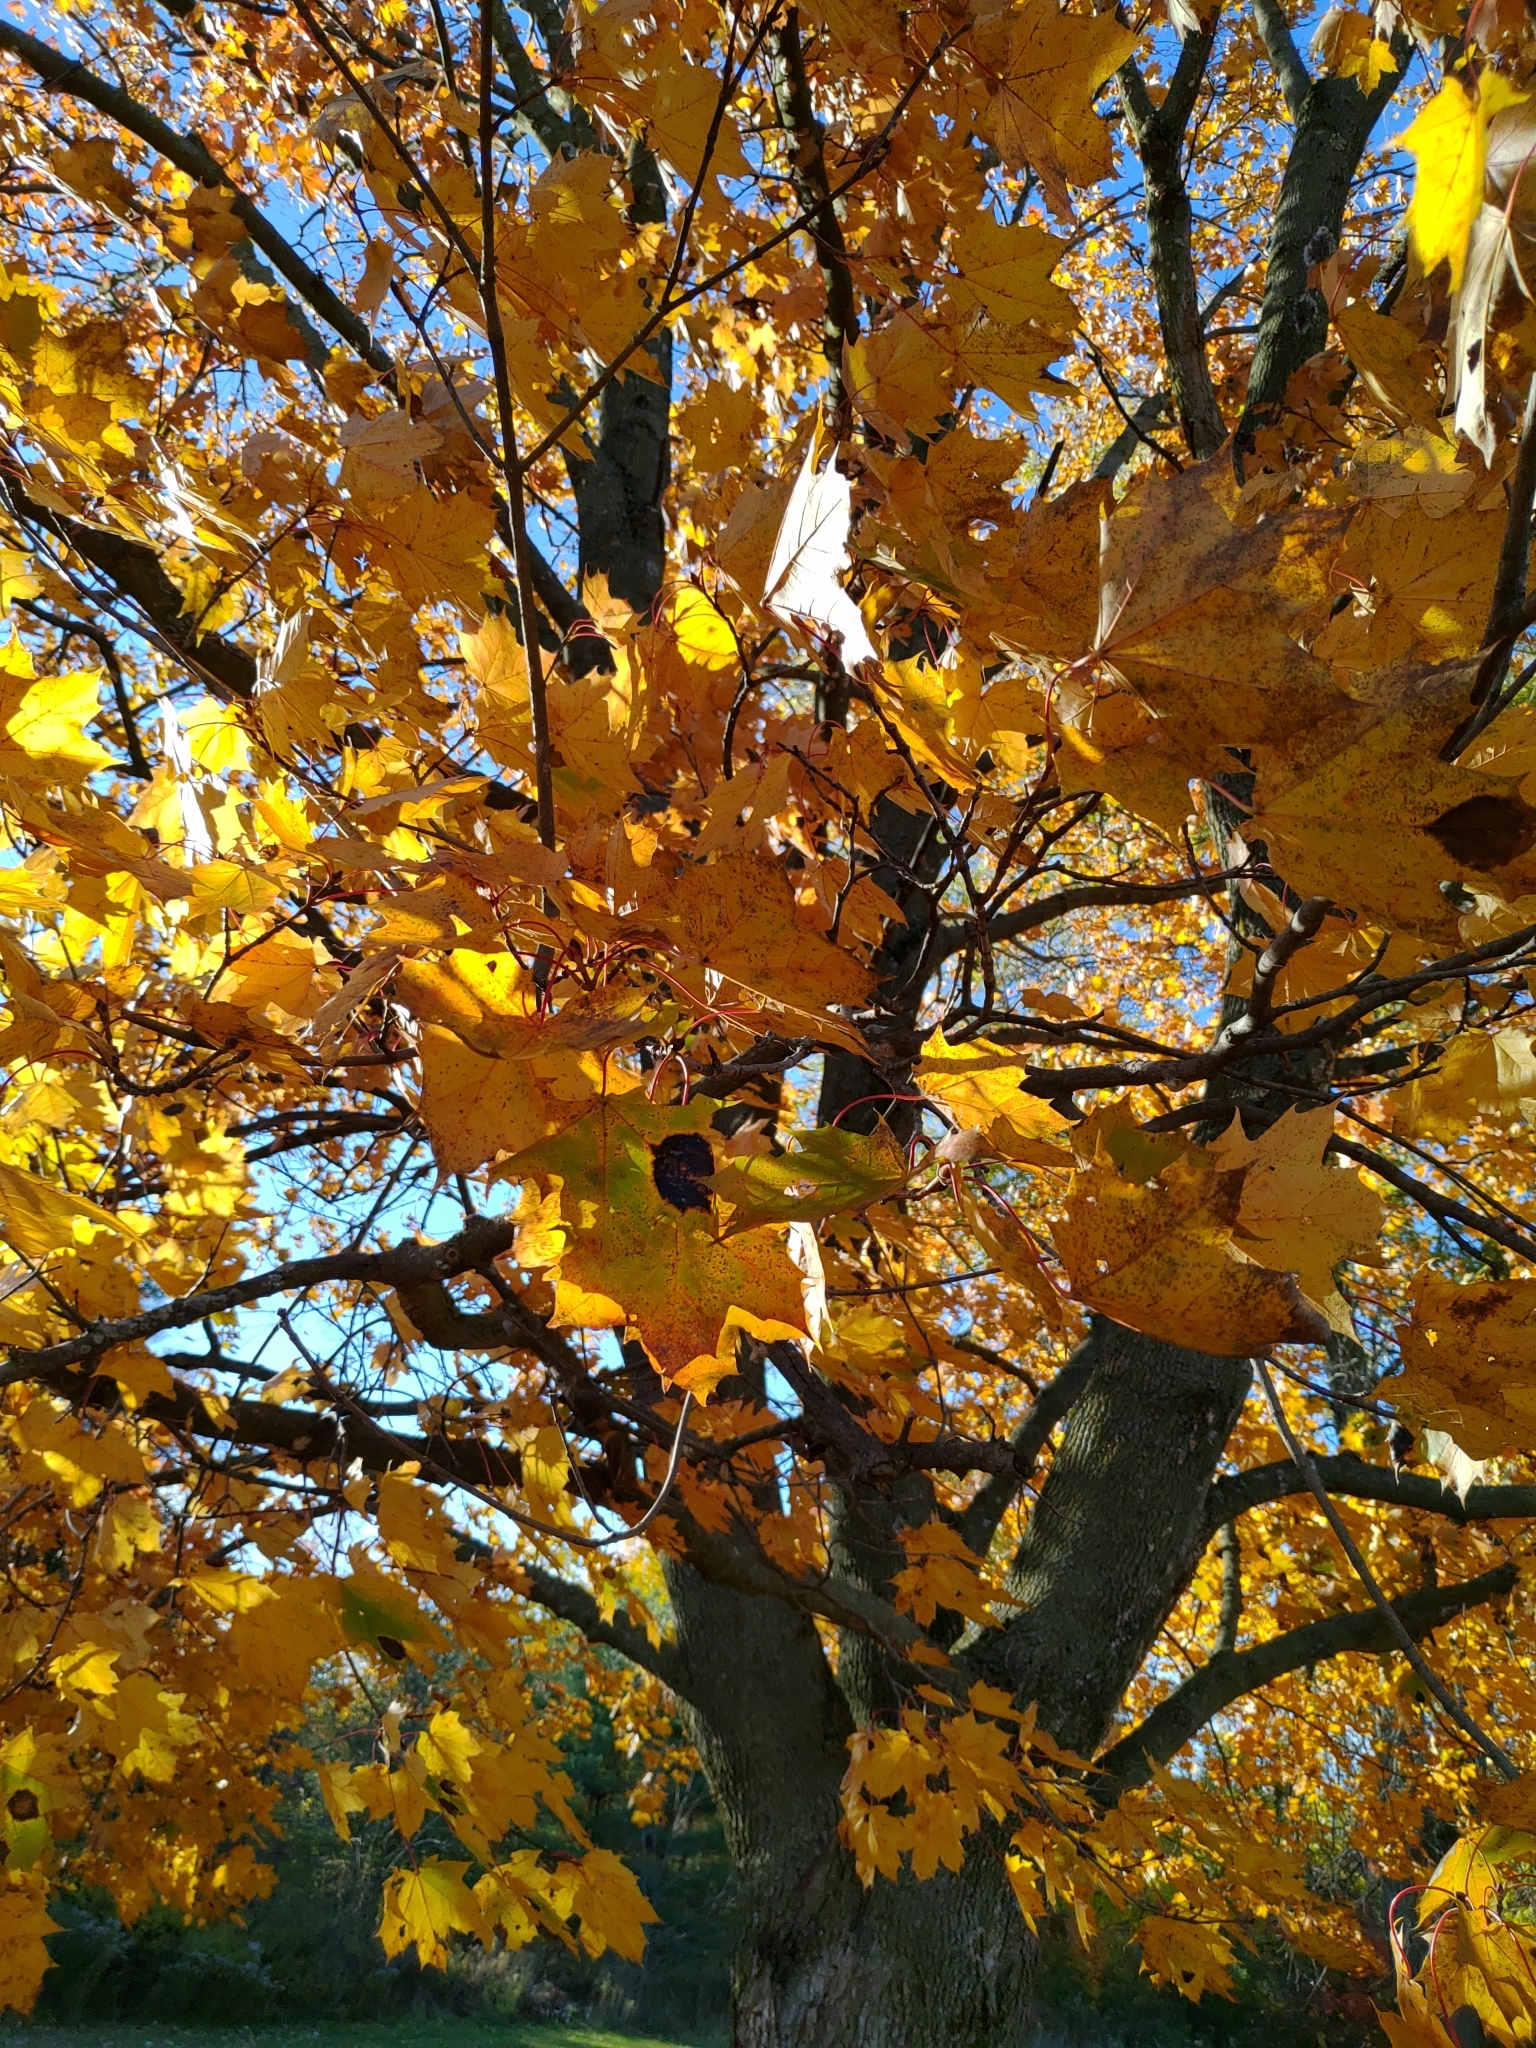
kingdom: Plantae
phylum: Tracheophyta
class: Magnoliopsida
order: Sapindales
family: Sapindaceae
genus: Acer
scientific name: Acer saccharum
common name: Sugar maple
